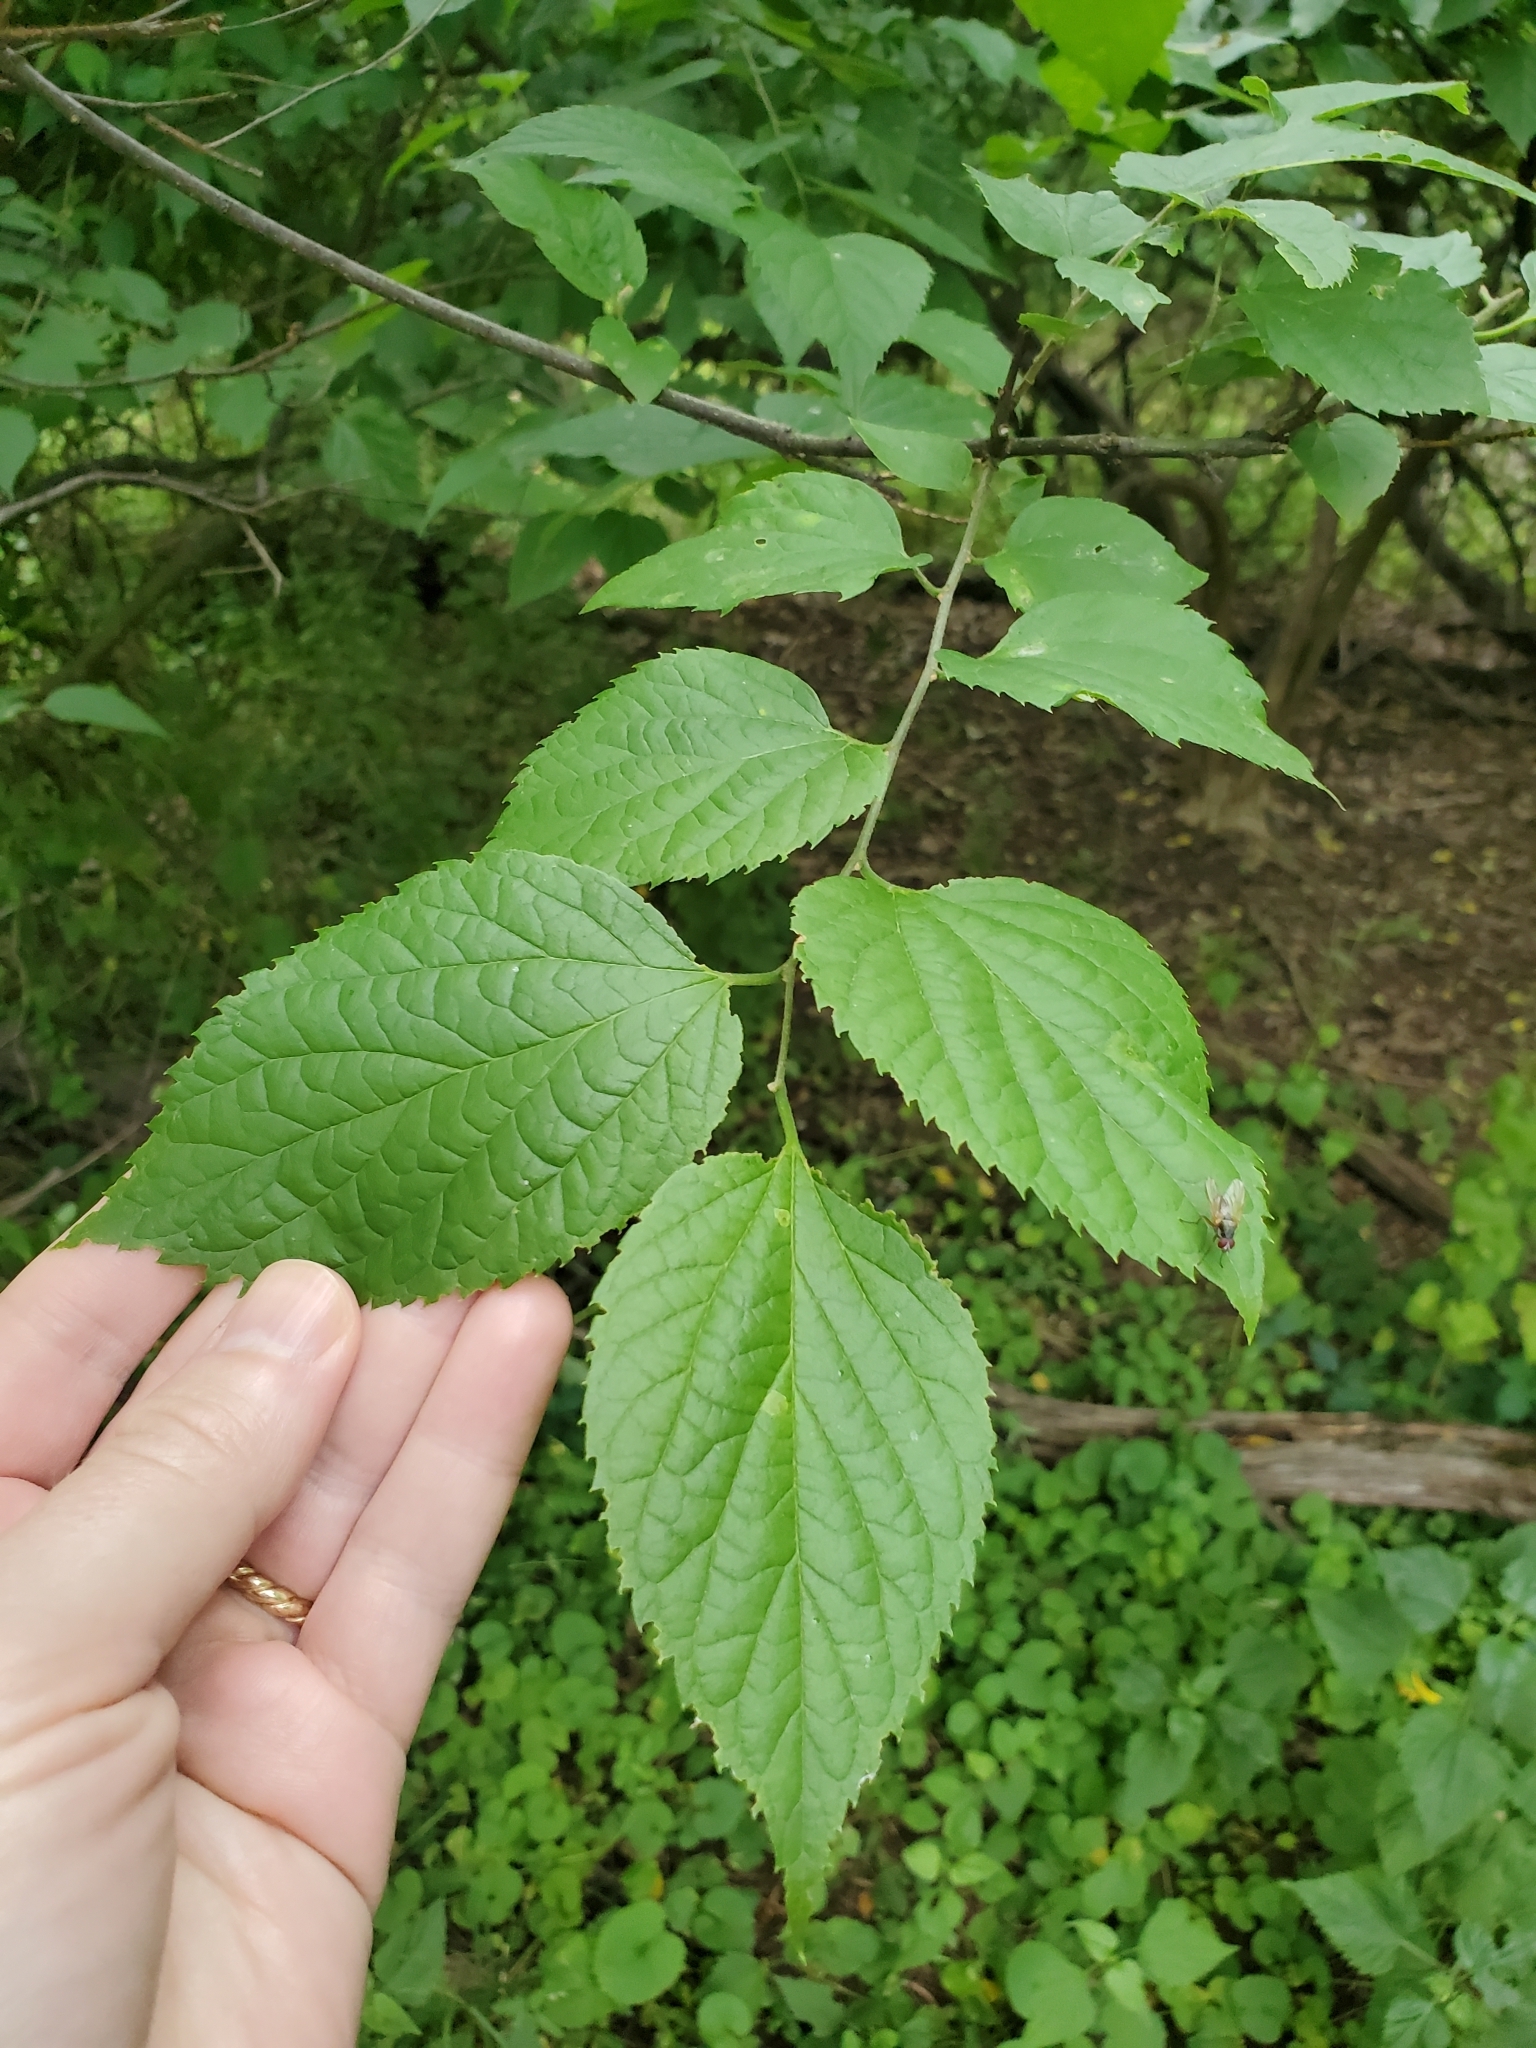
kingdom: Plantae
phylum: Tracheophyta
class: Magnoliopsida
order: Rosales
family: Cannabaceae
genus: Celtis
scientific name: Celtis occidentalis
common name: Common hackberry
